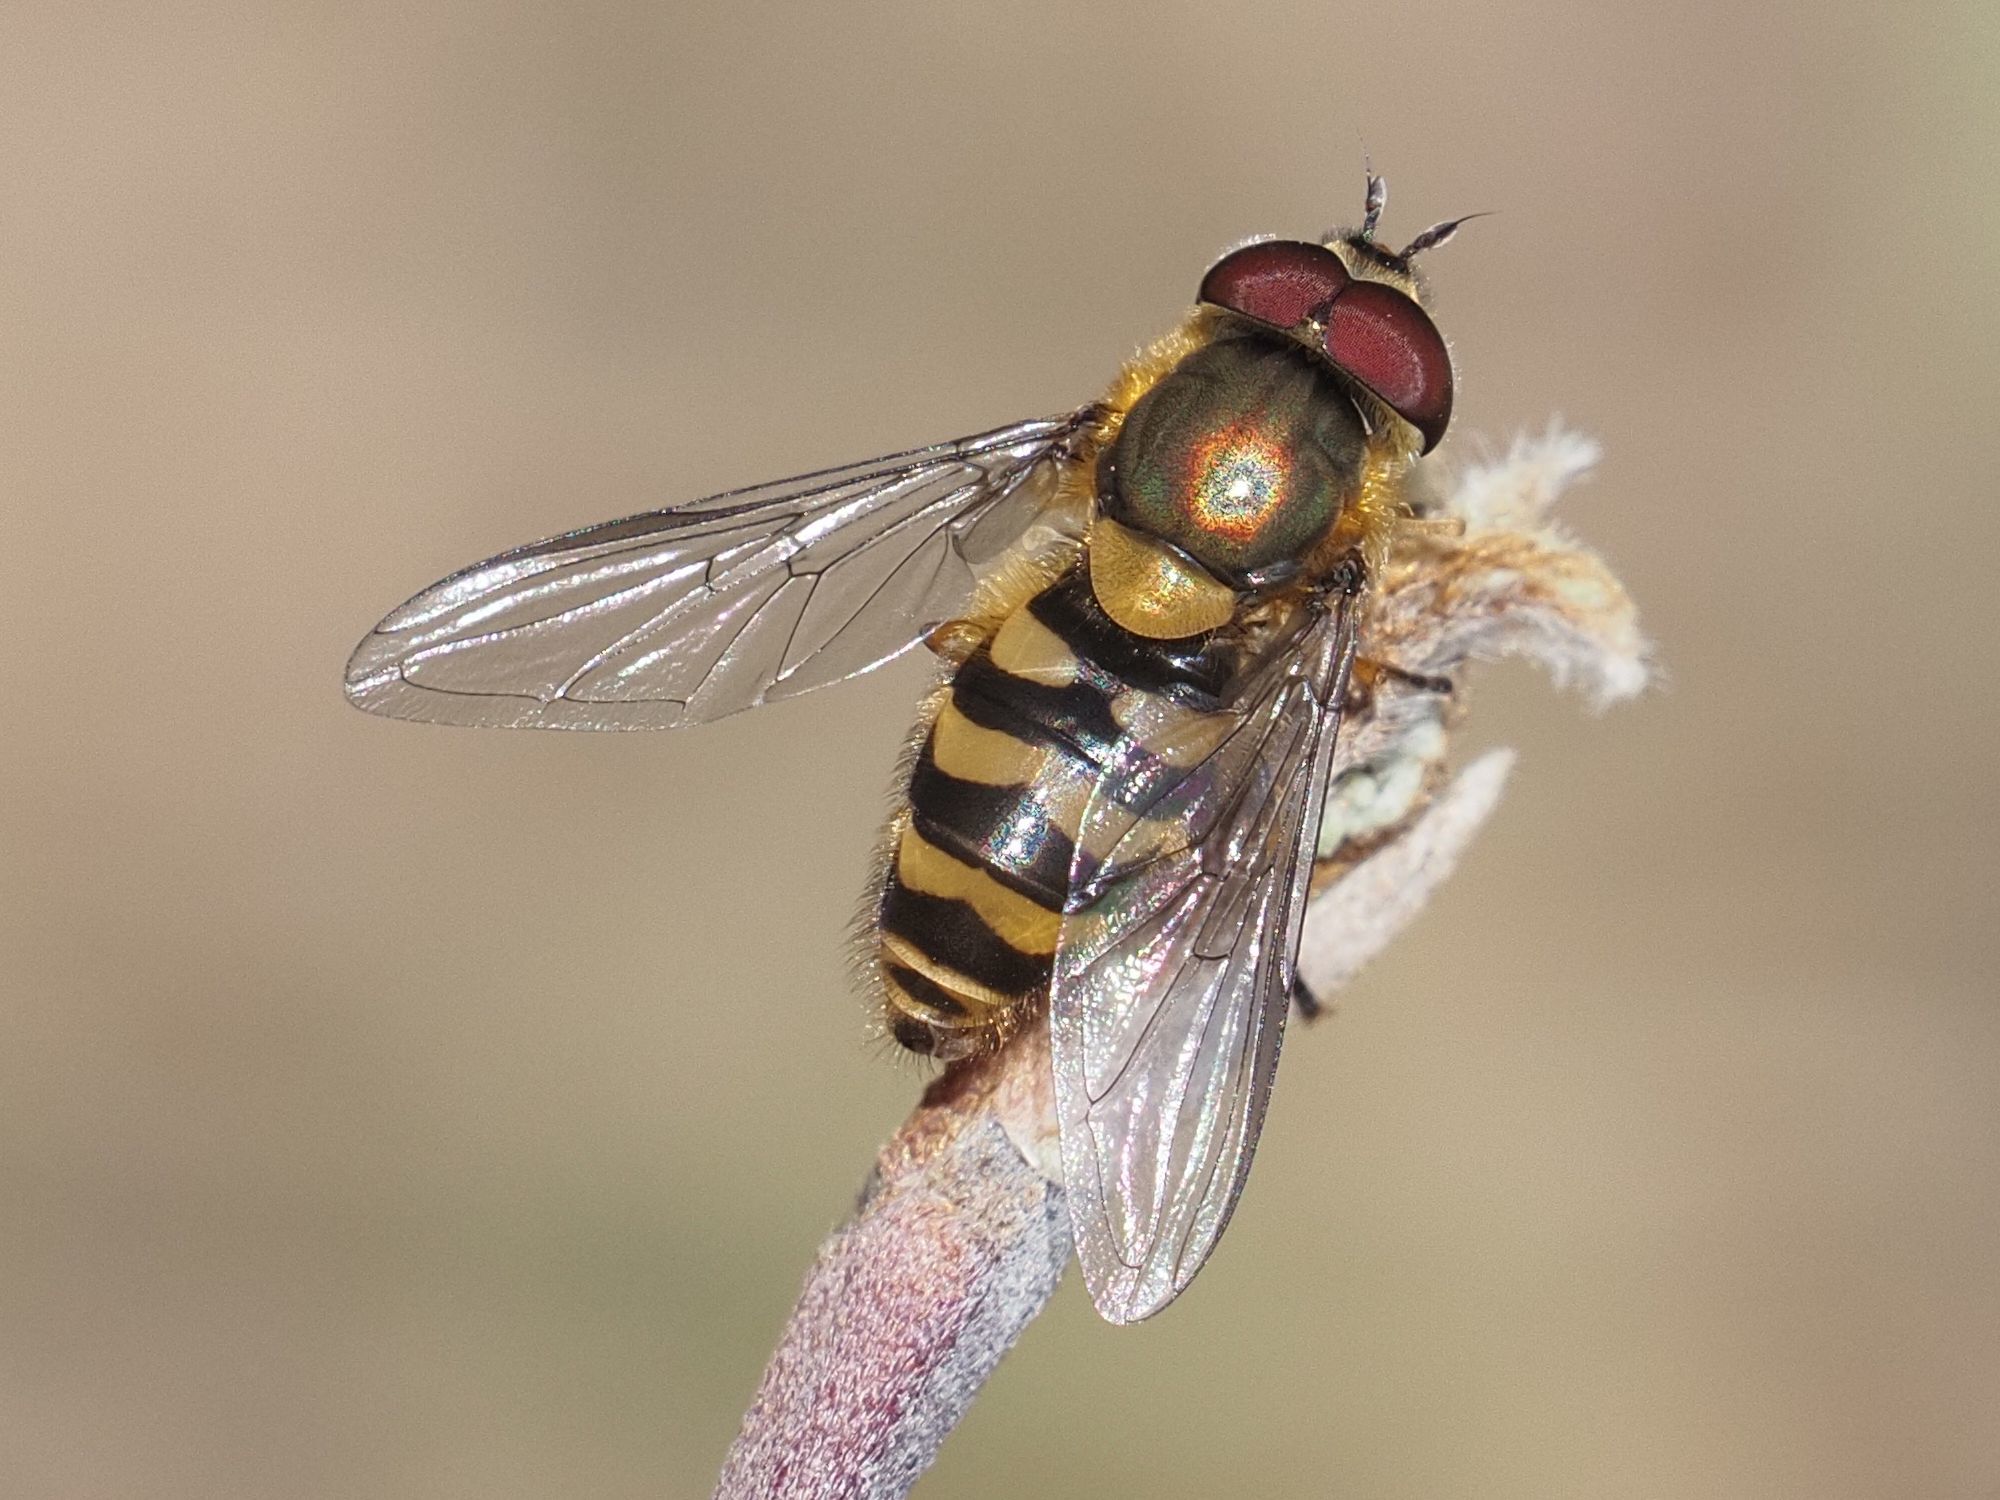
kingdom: Animalia
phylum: Arthropoda
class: Insecta
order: Diptera
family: Syrphidae
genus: Syrphus
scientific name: Syrphus torvus
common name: Hairy-eyed flower fly
